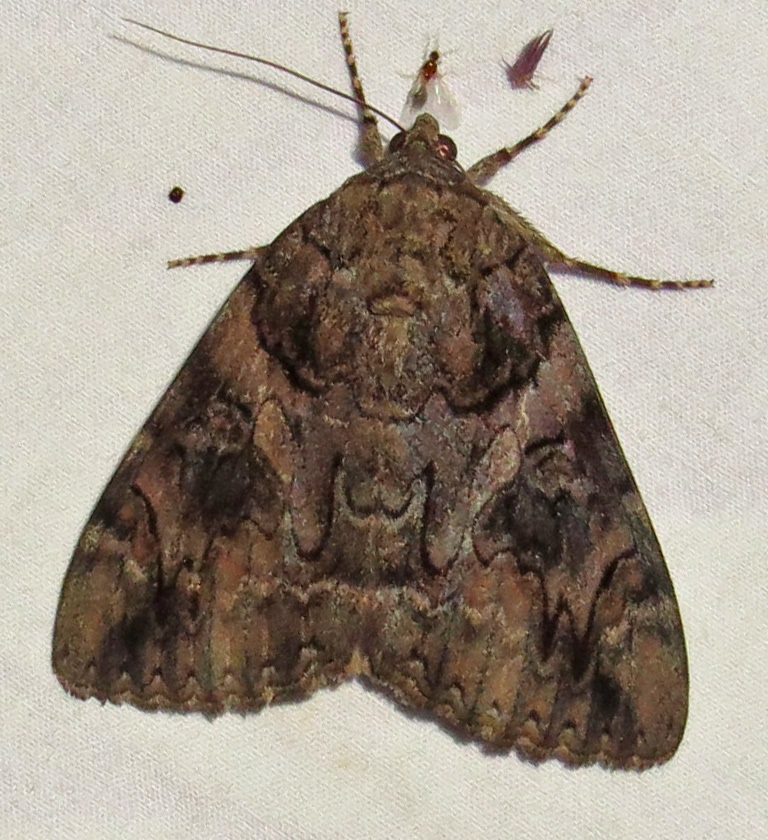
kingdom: Animalia
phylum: Arthropoda
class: Insecta
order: Lepidoptera
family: Erebidae
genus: Catocala
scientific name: Catocala piatrix
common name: The penitent underwing
